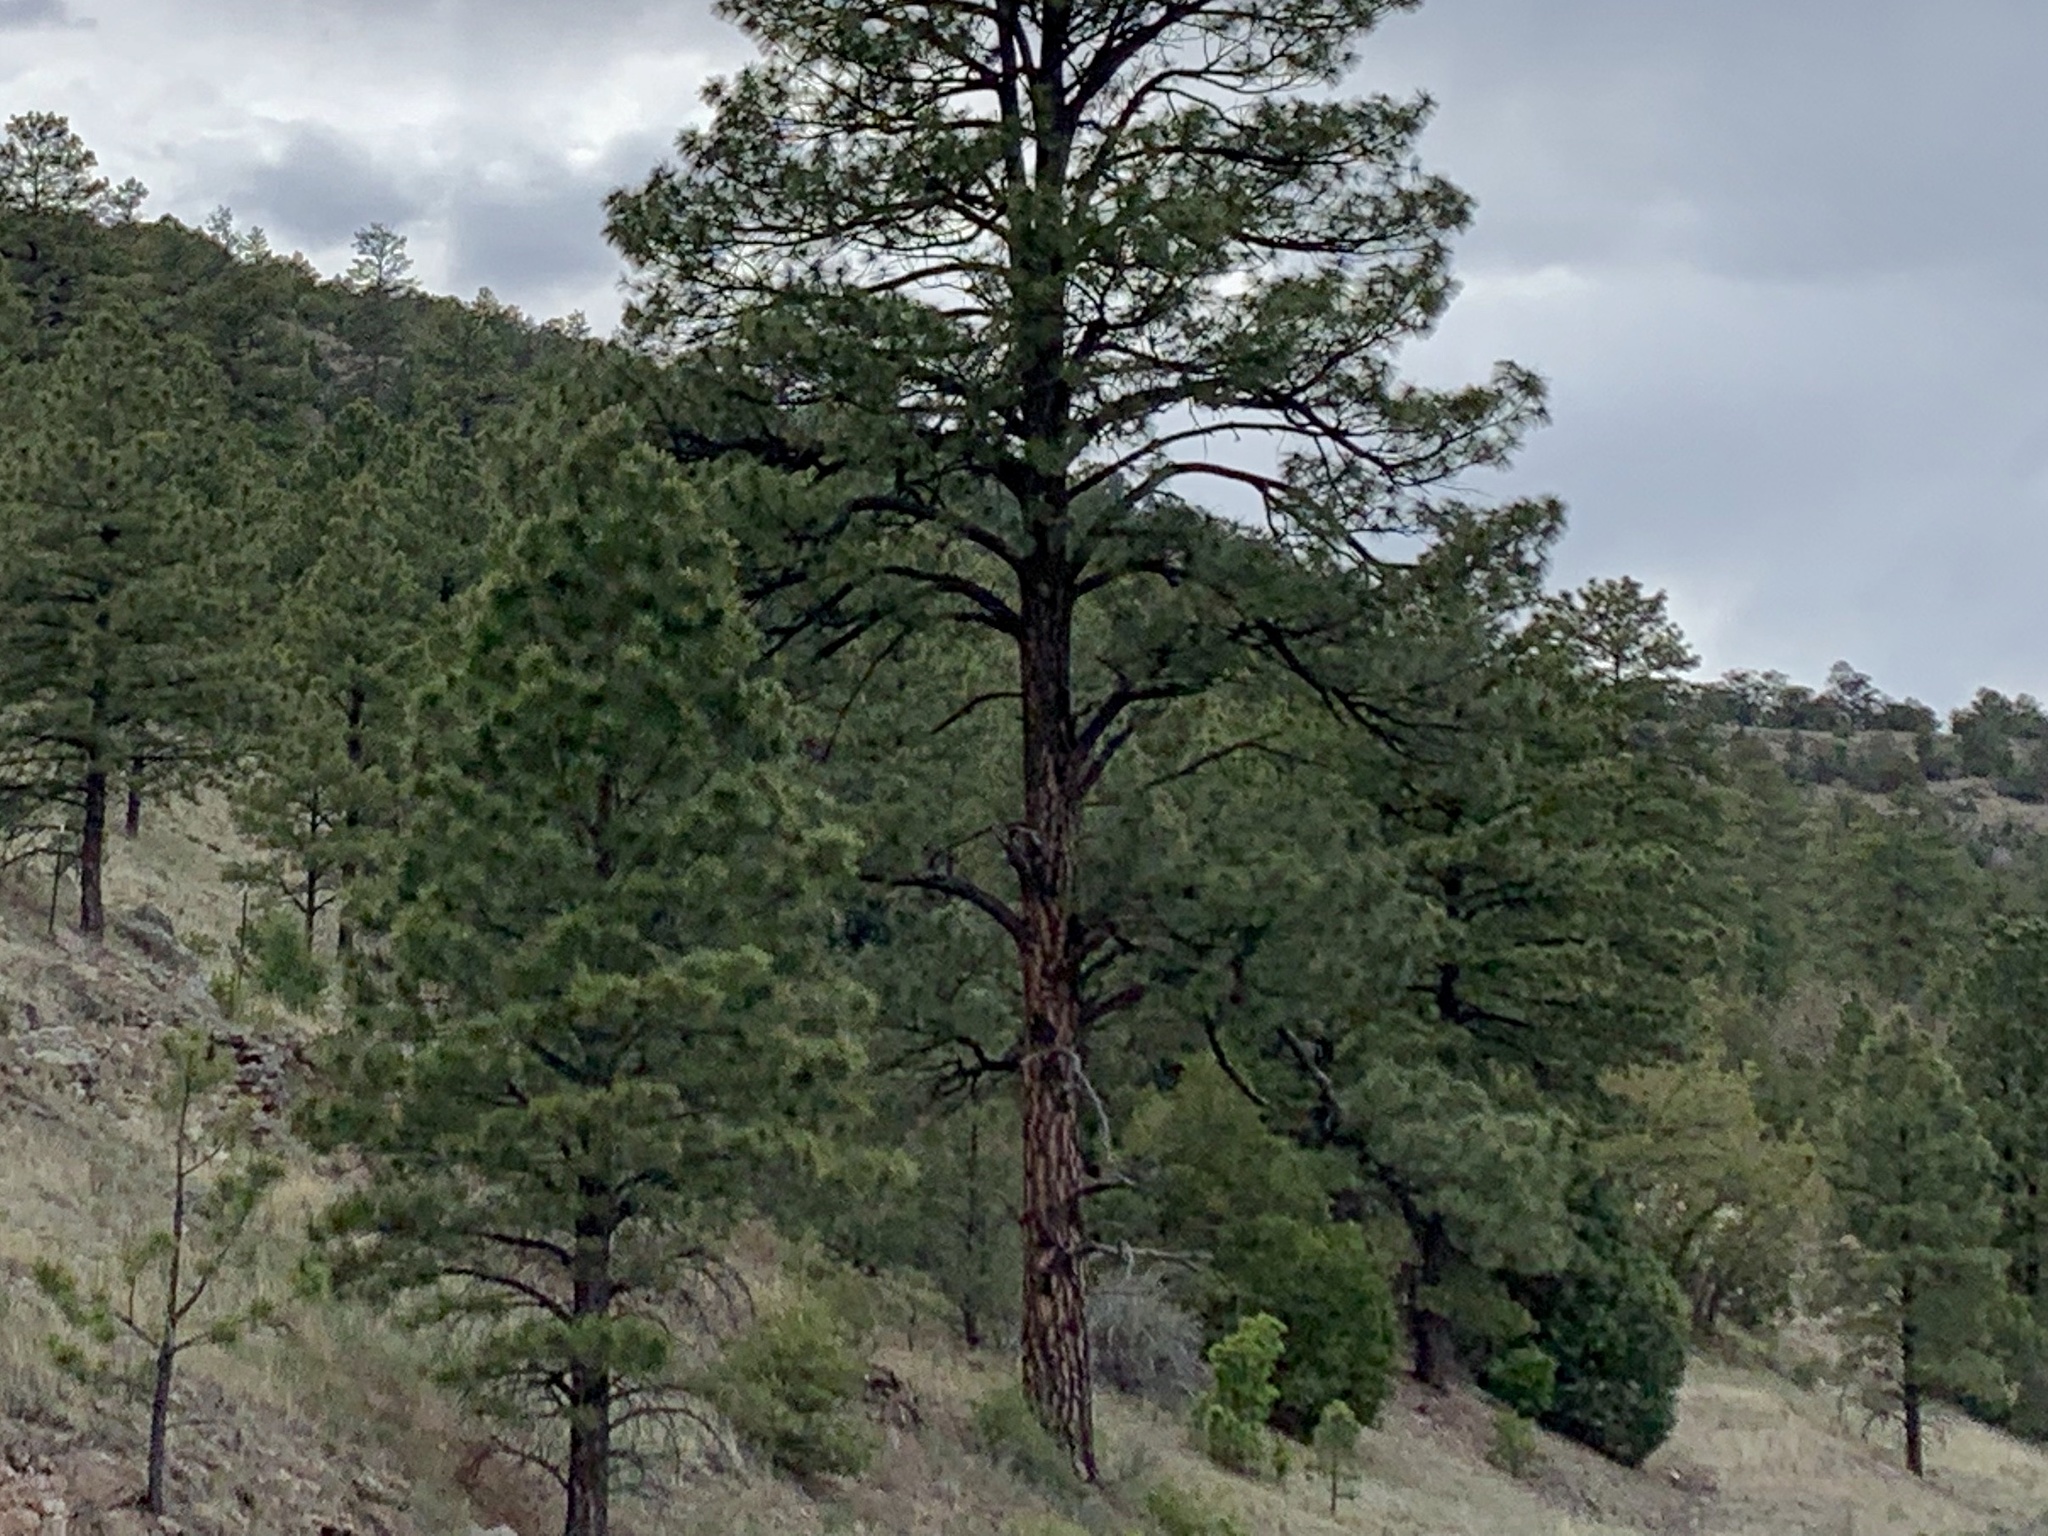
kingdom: Plantae
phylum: Tracheophyta
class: Pinopsida
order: Pinales
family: Pinaceae
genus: Pinus
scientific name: Pinus ponderosa
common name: Western yellow-pine
